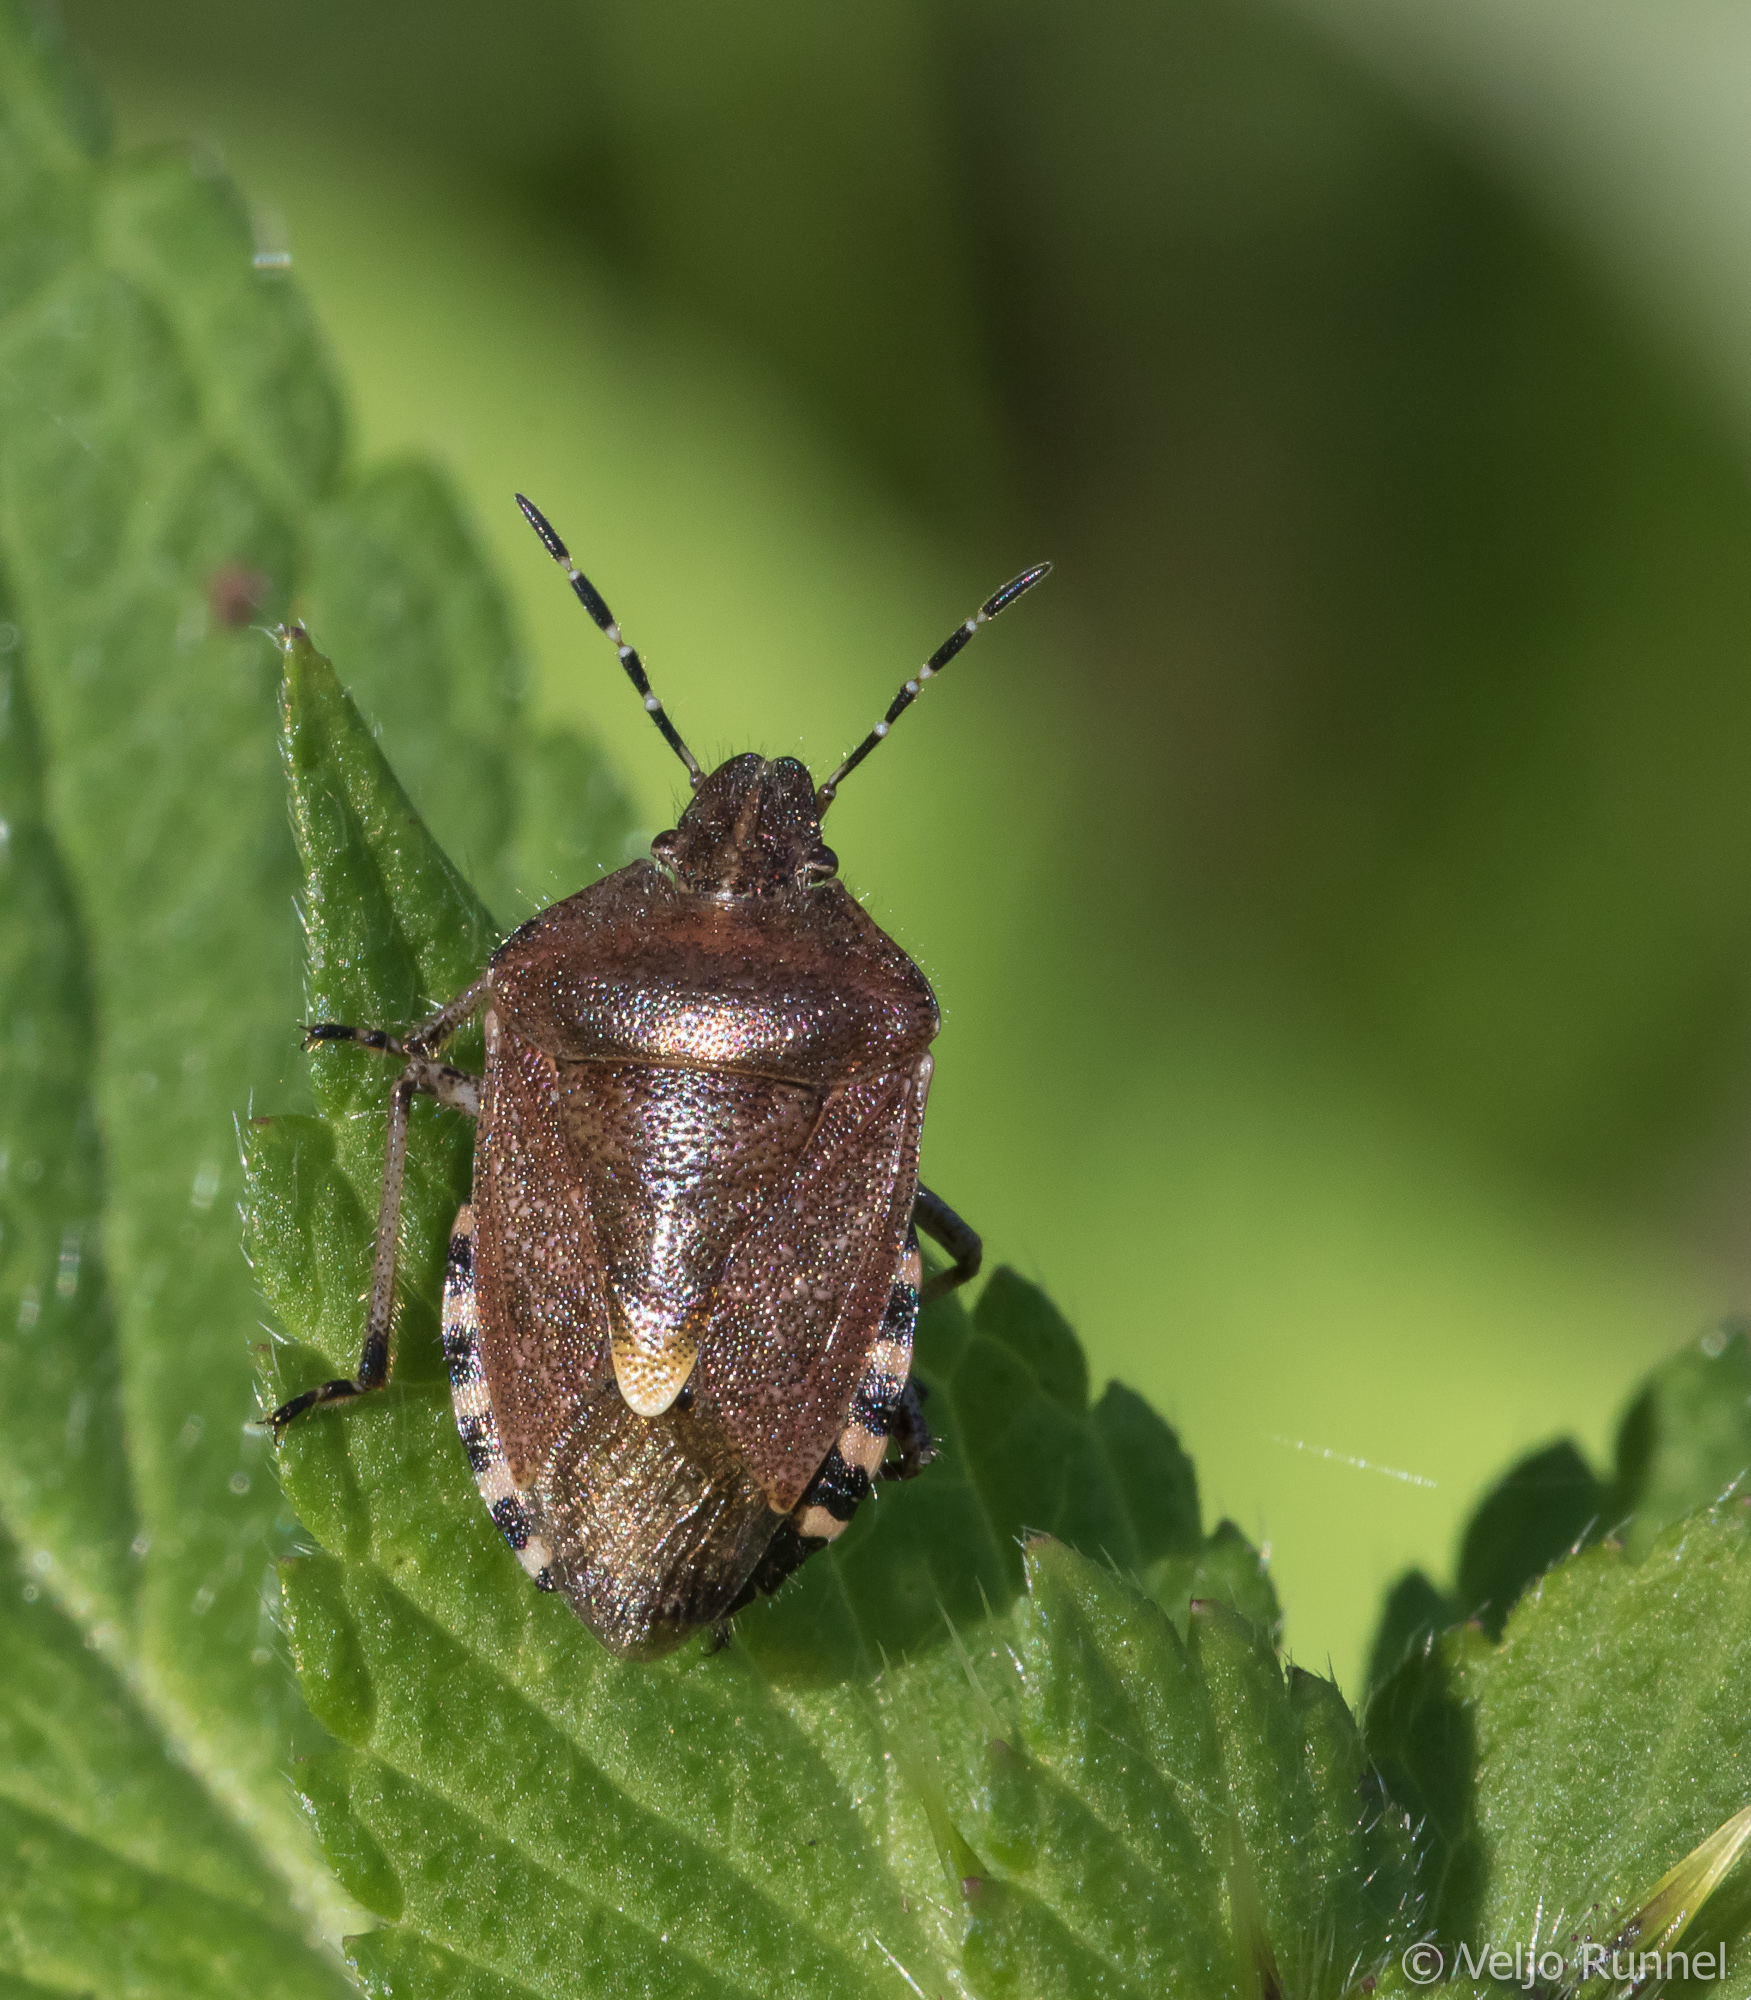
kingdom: Animalia
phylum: Arthropoda
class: Insecta
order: Hemiptera
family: Pentatomidae
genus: Dolycoris
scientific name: Dolycoris baccarum
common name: Sloe bug
